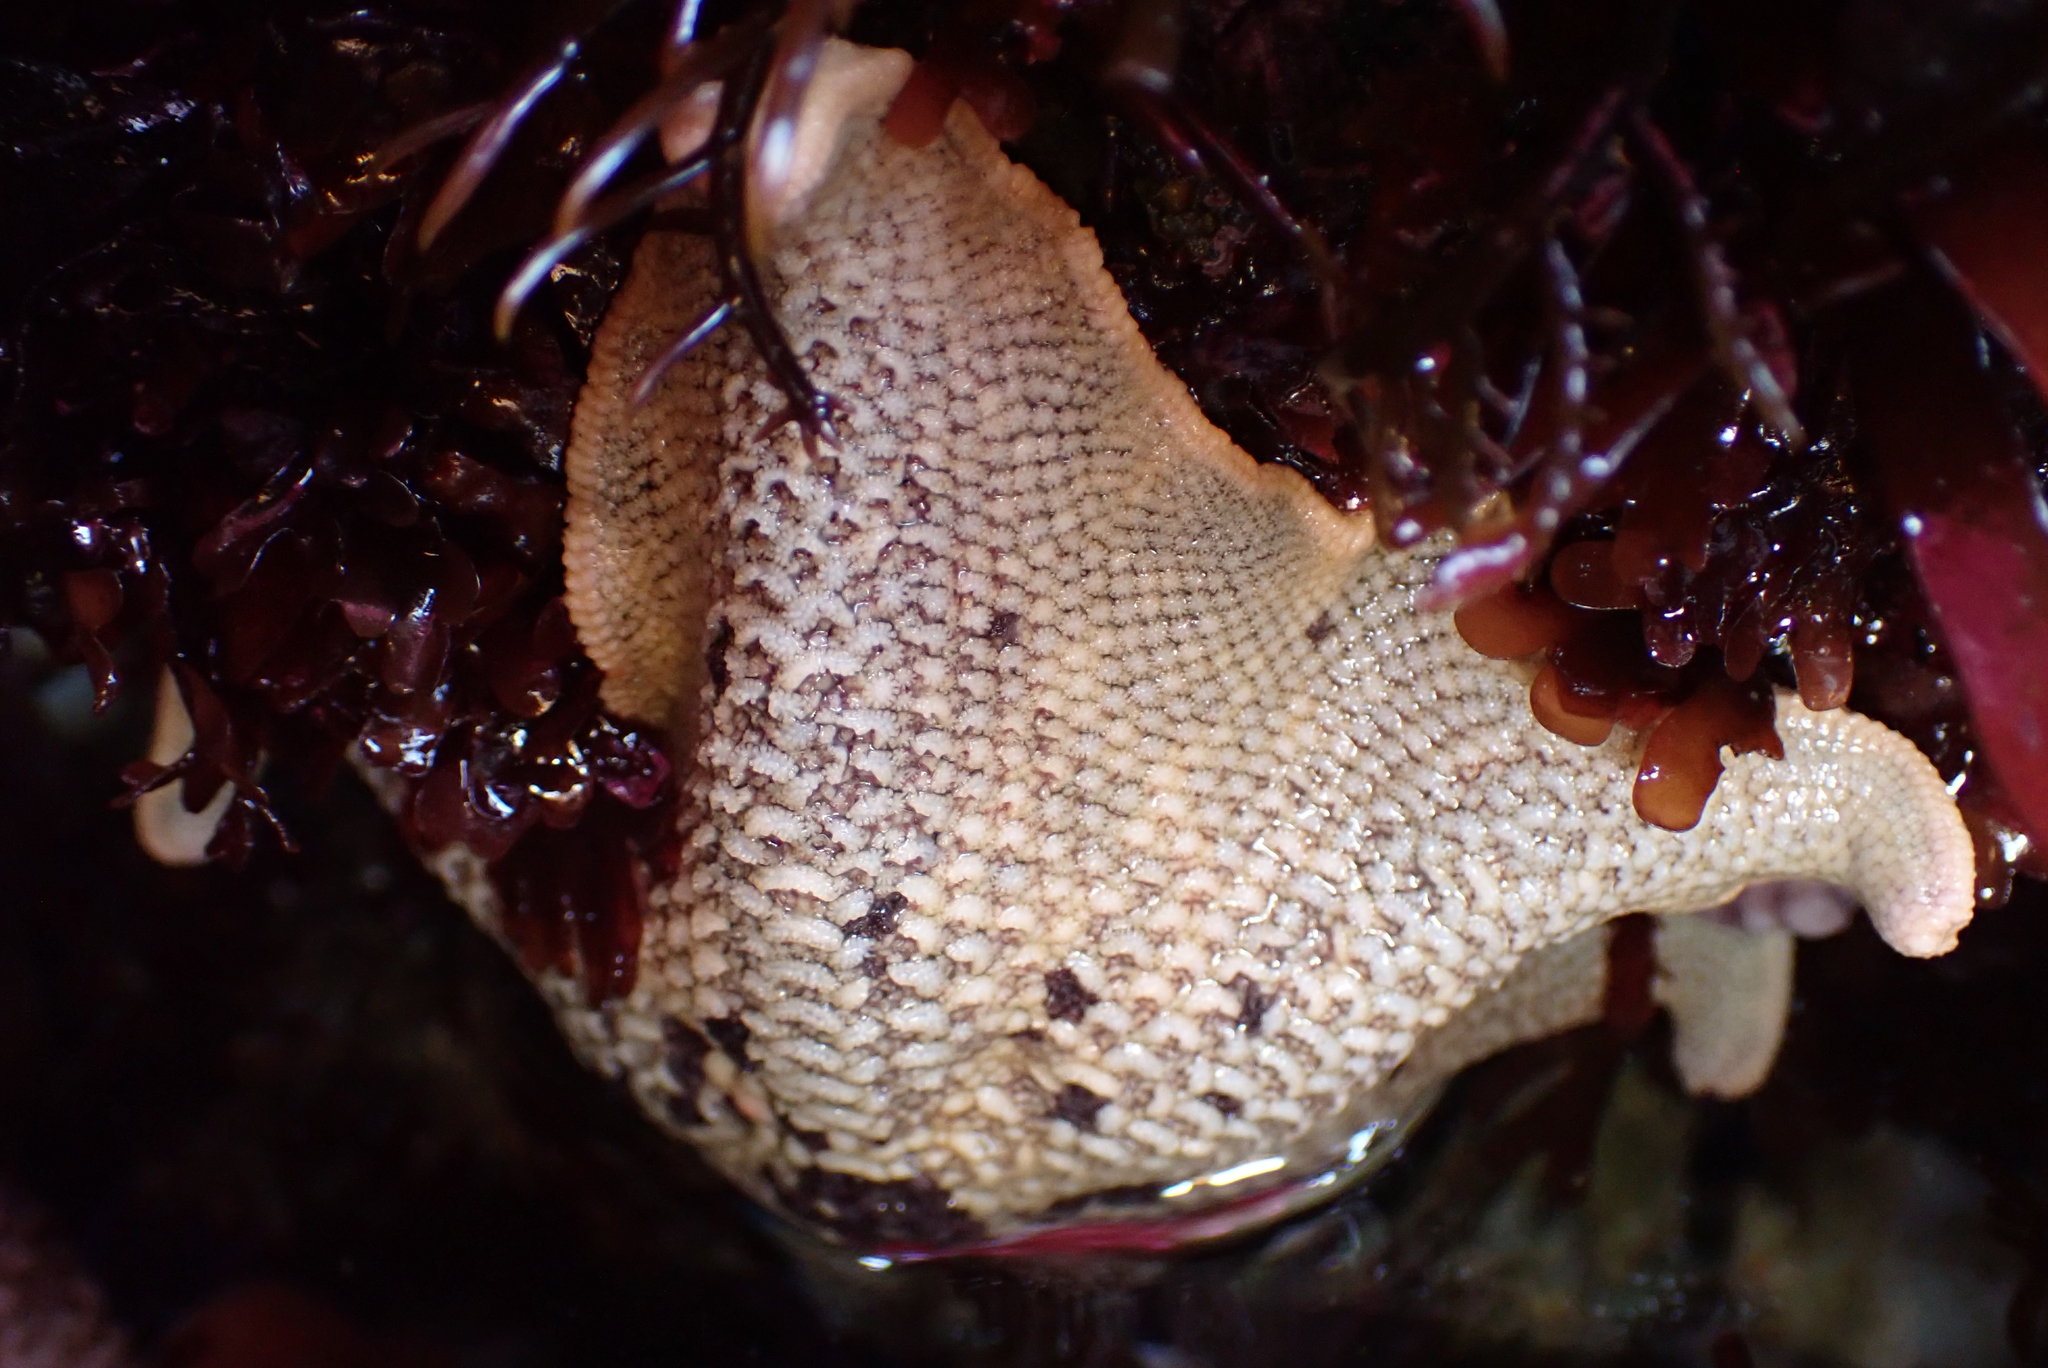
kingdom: Animalia
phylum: Echinodermata
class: Asteroidea
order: Valvatida
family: Asterinidae
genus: Patiria
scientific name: Patiria miniata
